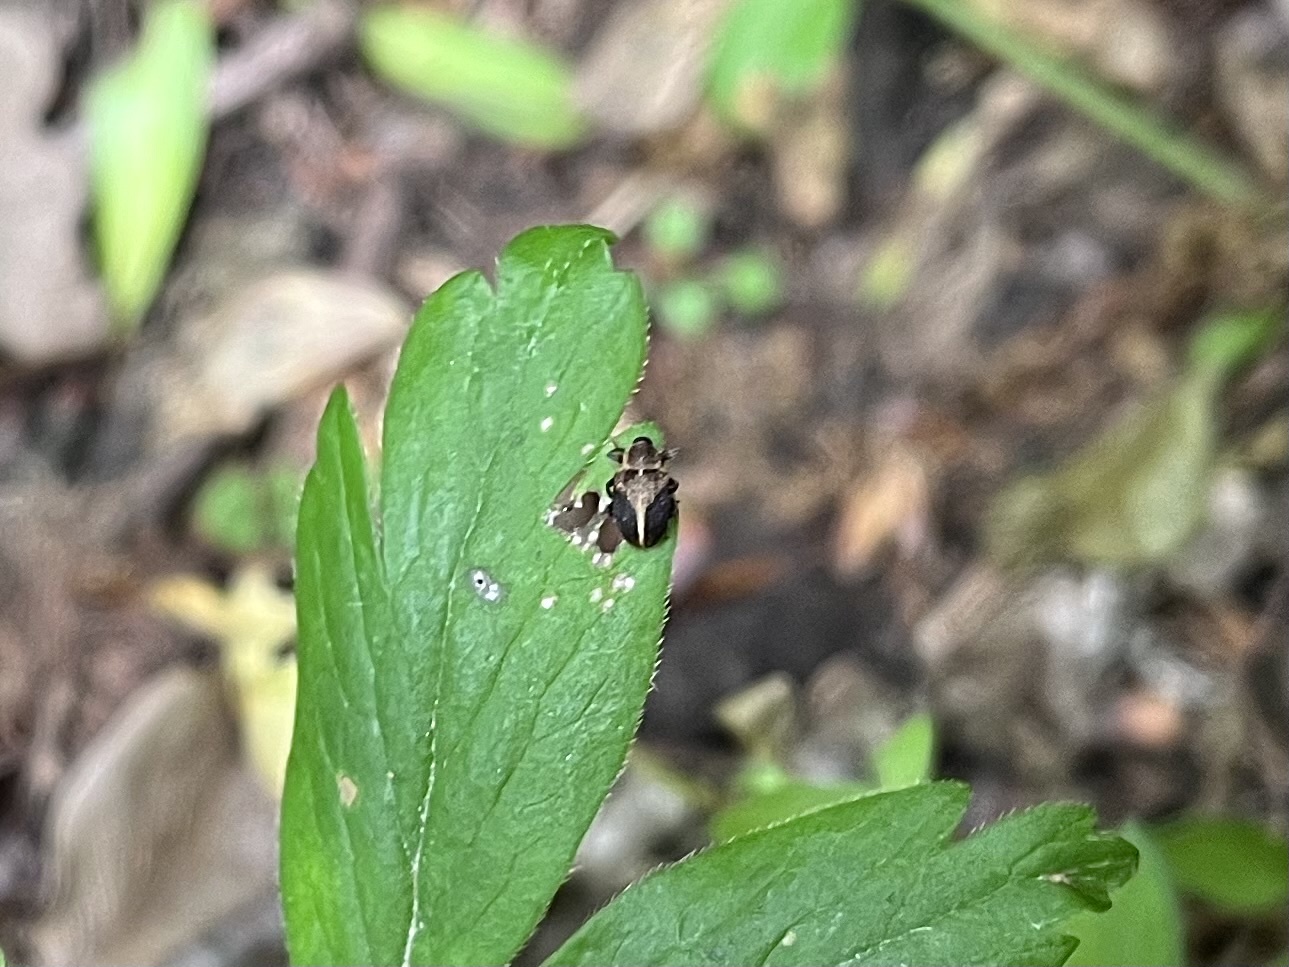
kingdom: Animalia
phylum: Arthropoda
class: Insecta
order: Coleoptera
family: Curculionidae
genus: Lignyodes
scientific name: Lignyodes enucleator
